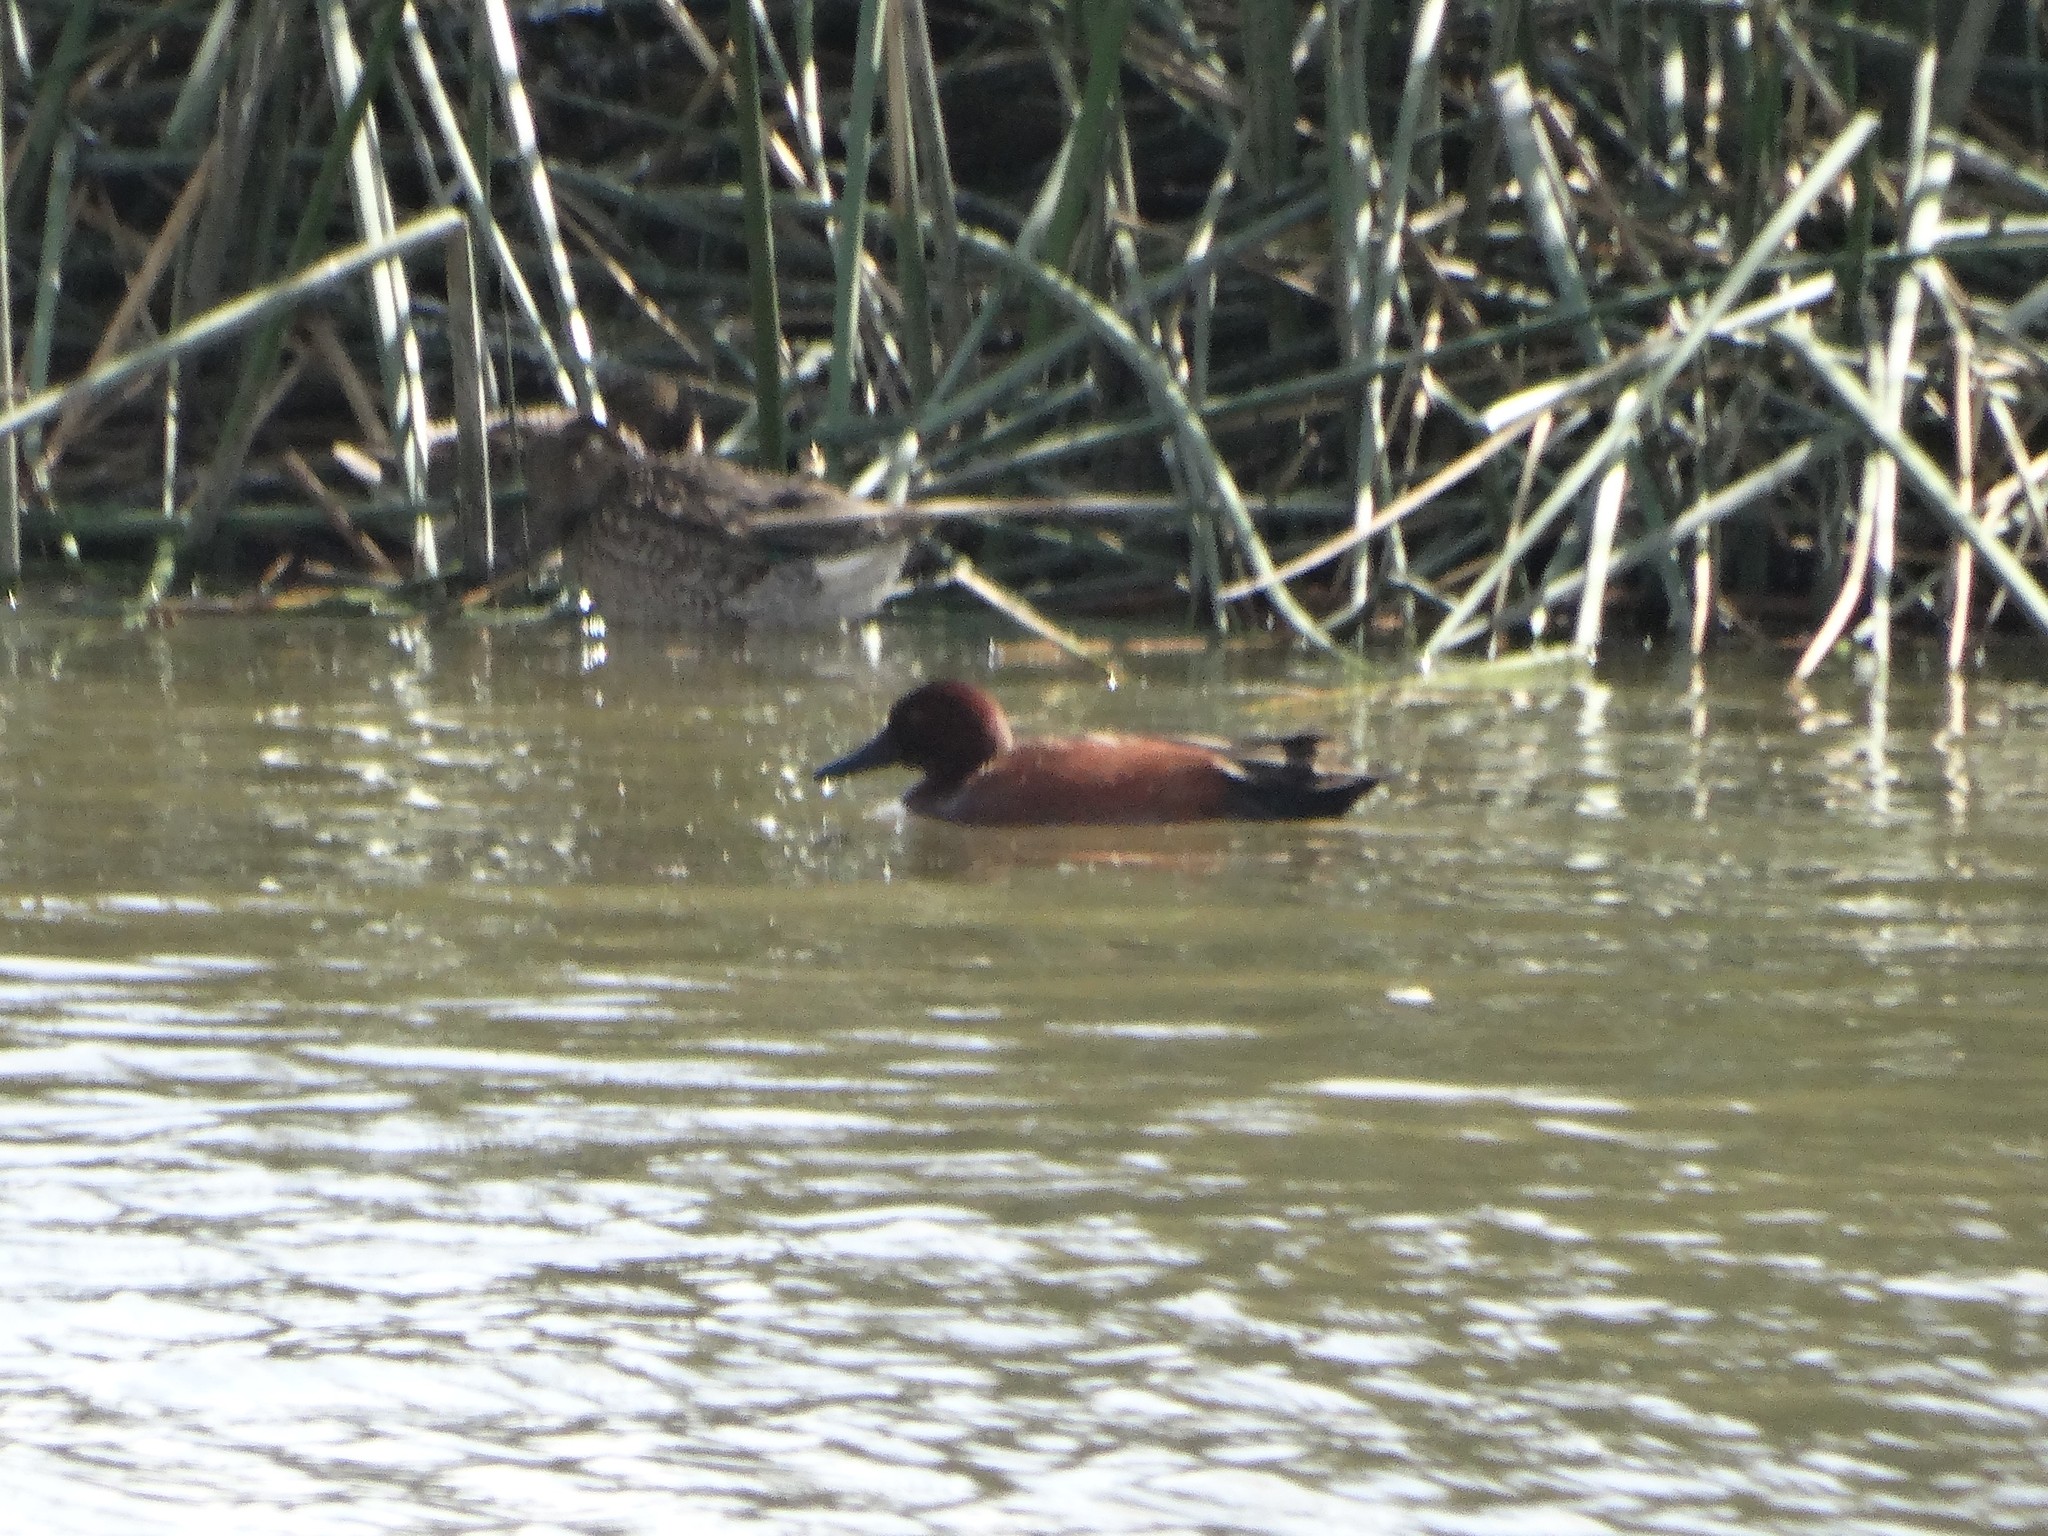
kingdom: Animalia
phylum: Chordata
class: Aves
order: Anseriformes
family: Anatidae
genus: Spatula
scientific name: Spatula cyanoptera
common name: Cinnamon teal
